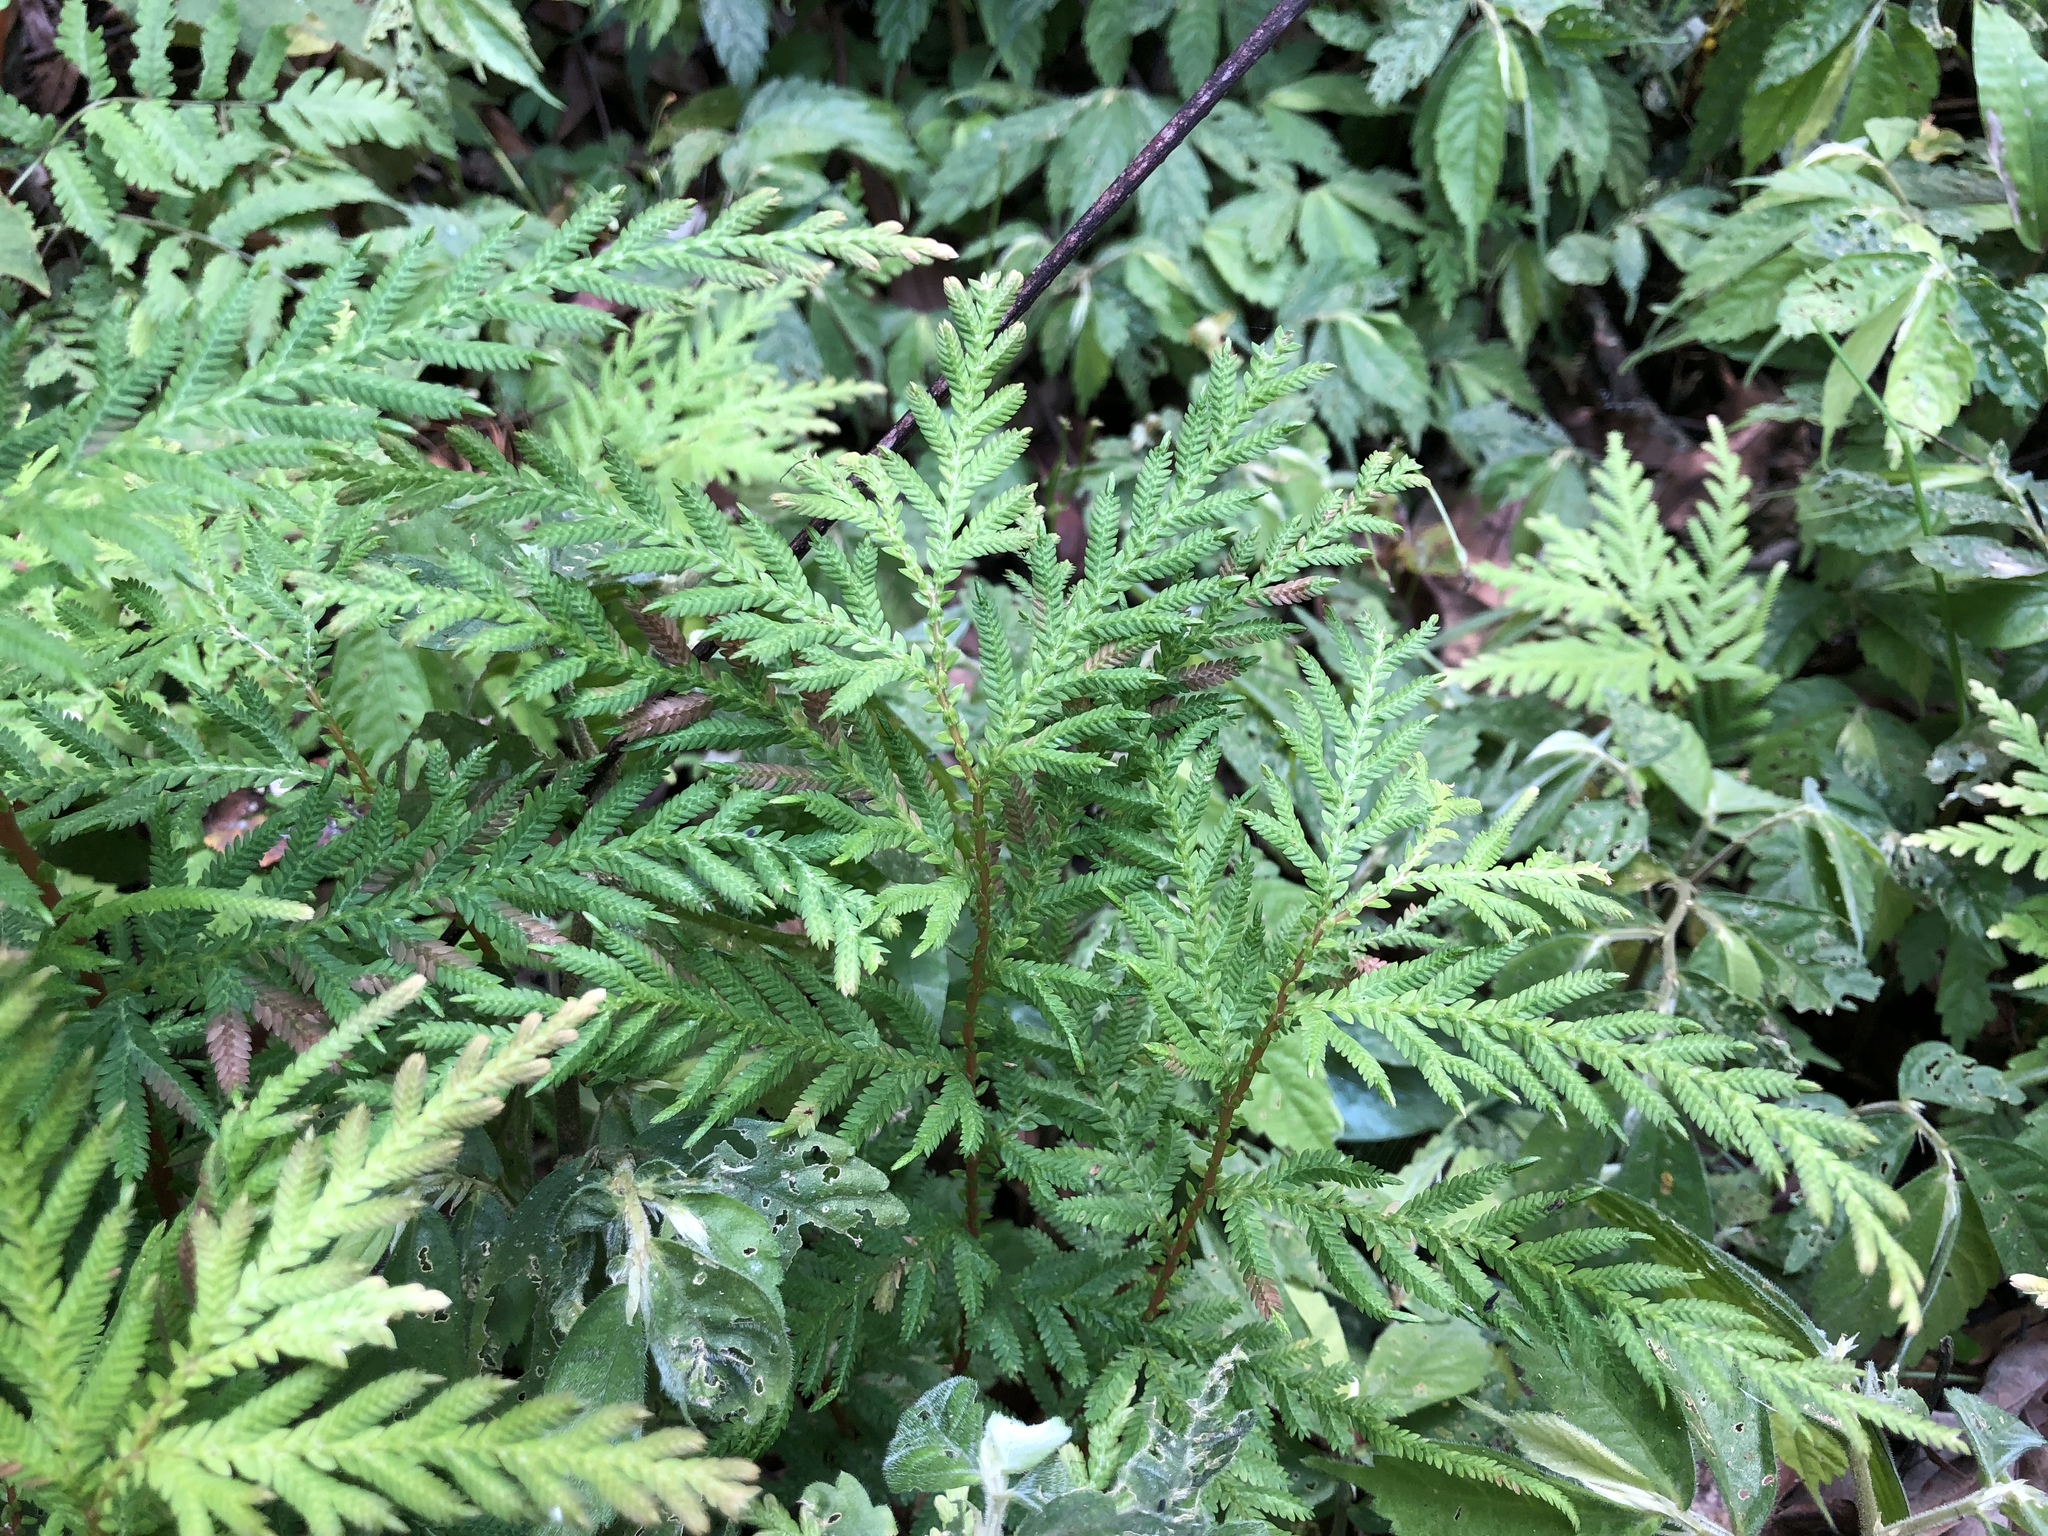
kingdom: Plantae
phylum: Tracheophyta
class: Lycopodiopsida
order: Selaginellales
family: Selaginellaceae
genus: Selaginella
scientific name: Selaginella delicatula
